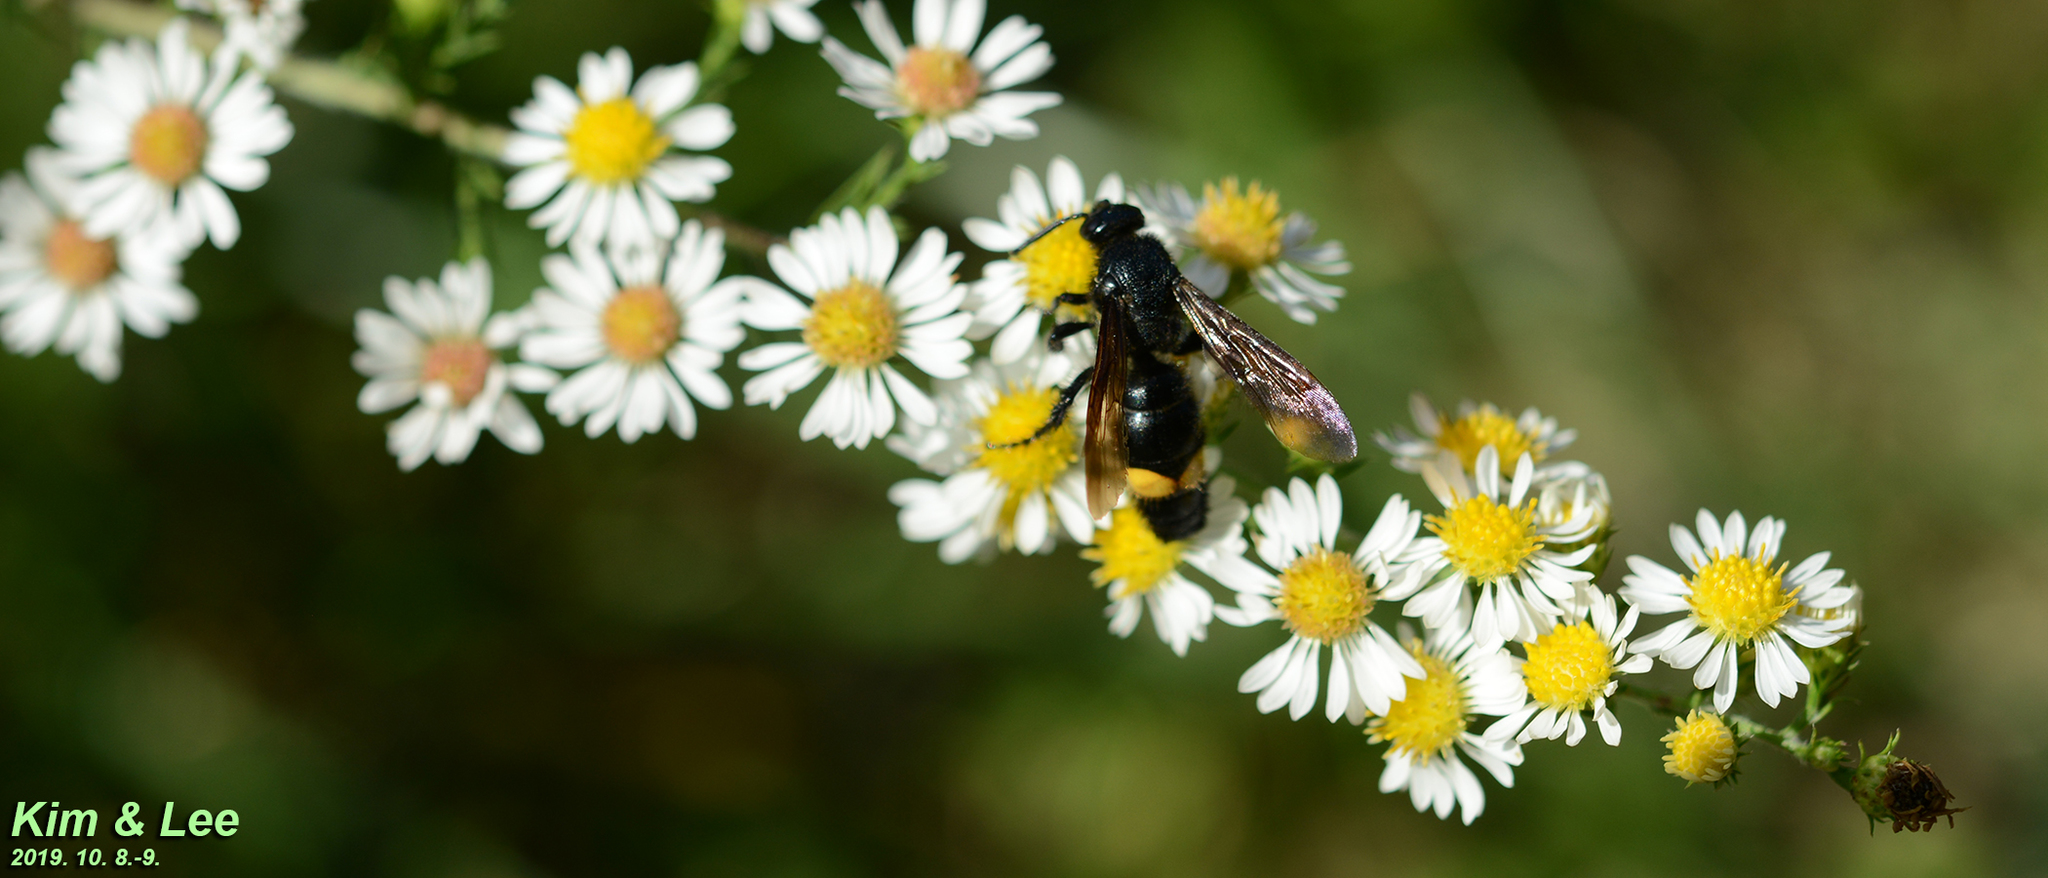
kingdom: Animalia
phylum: Arthropoda
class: Insecta
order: Hymenoptera
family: Scoliidae
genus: Scolia
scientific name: Scolia oculata
